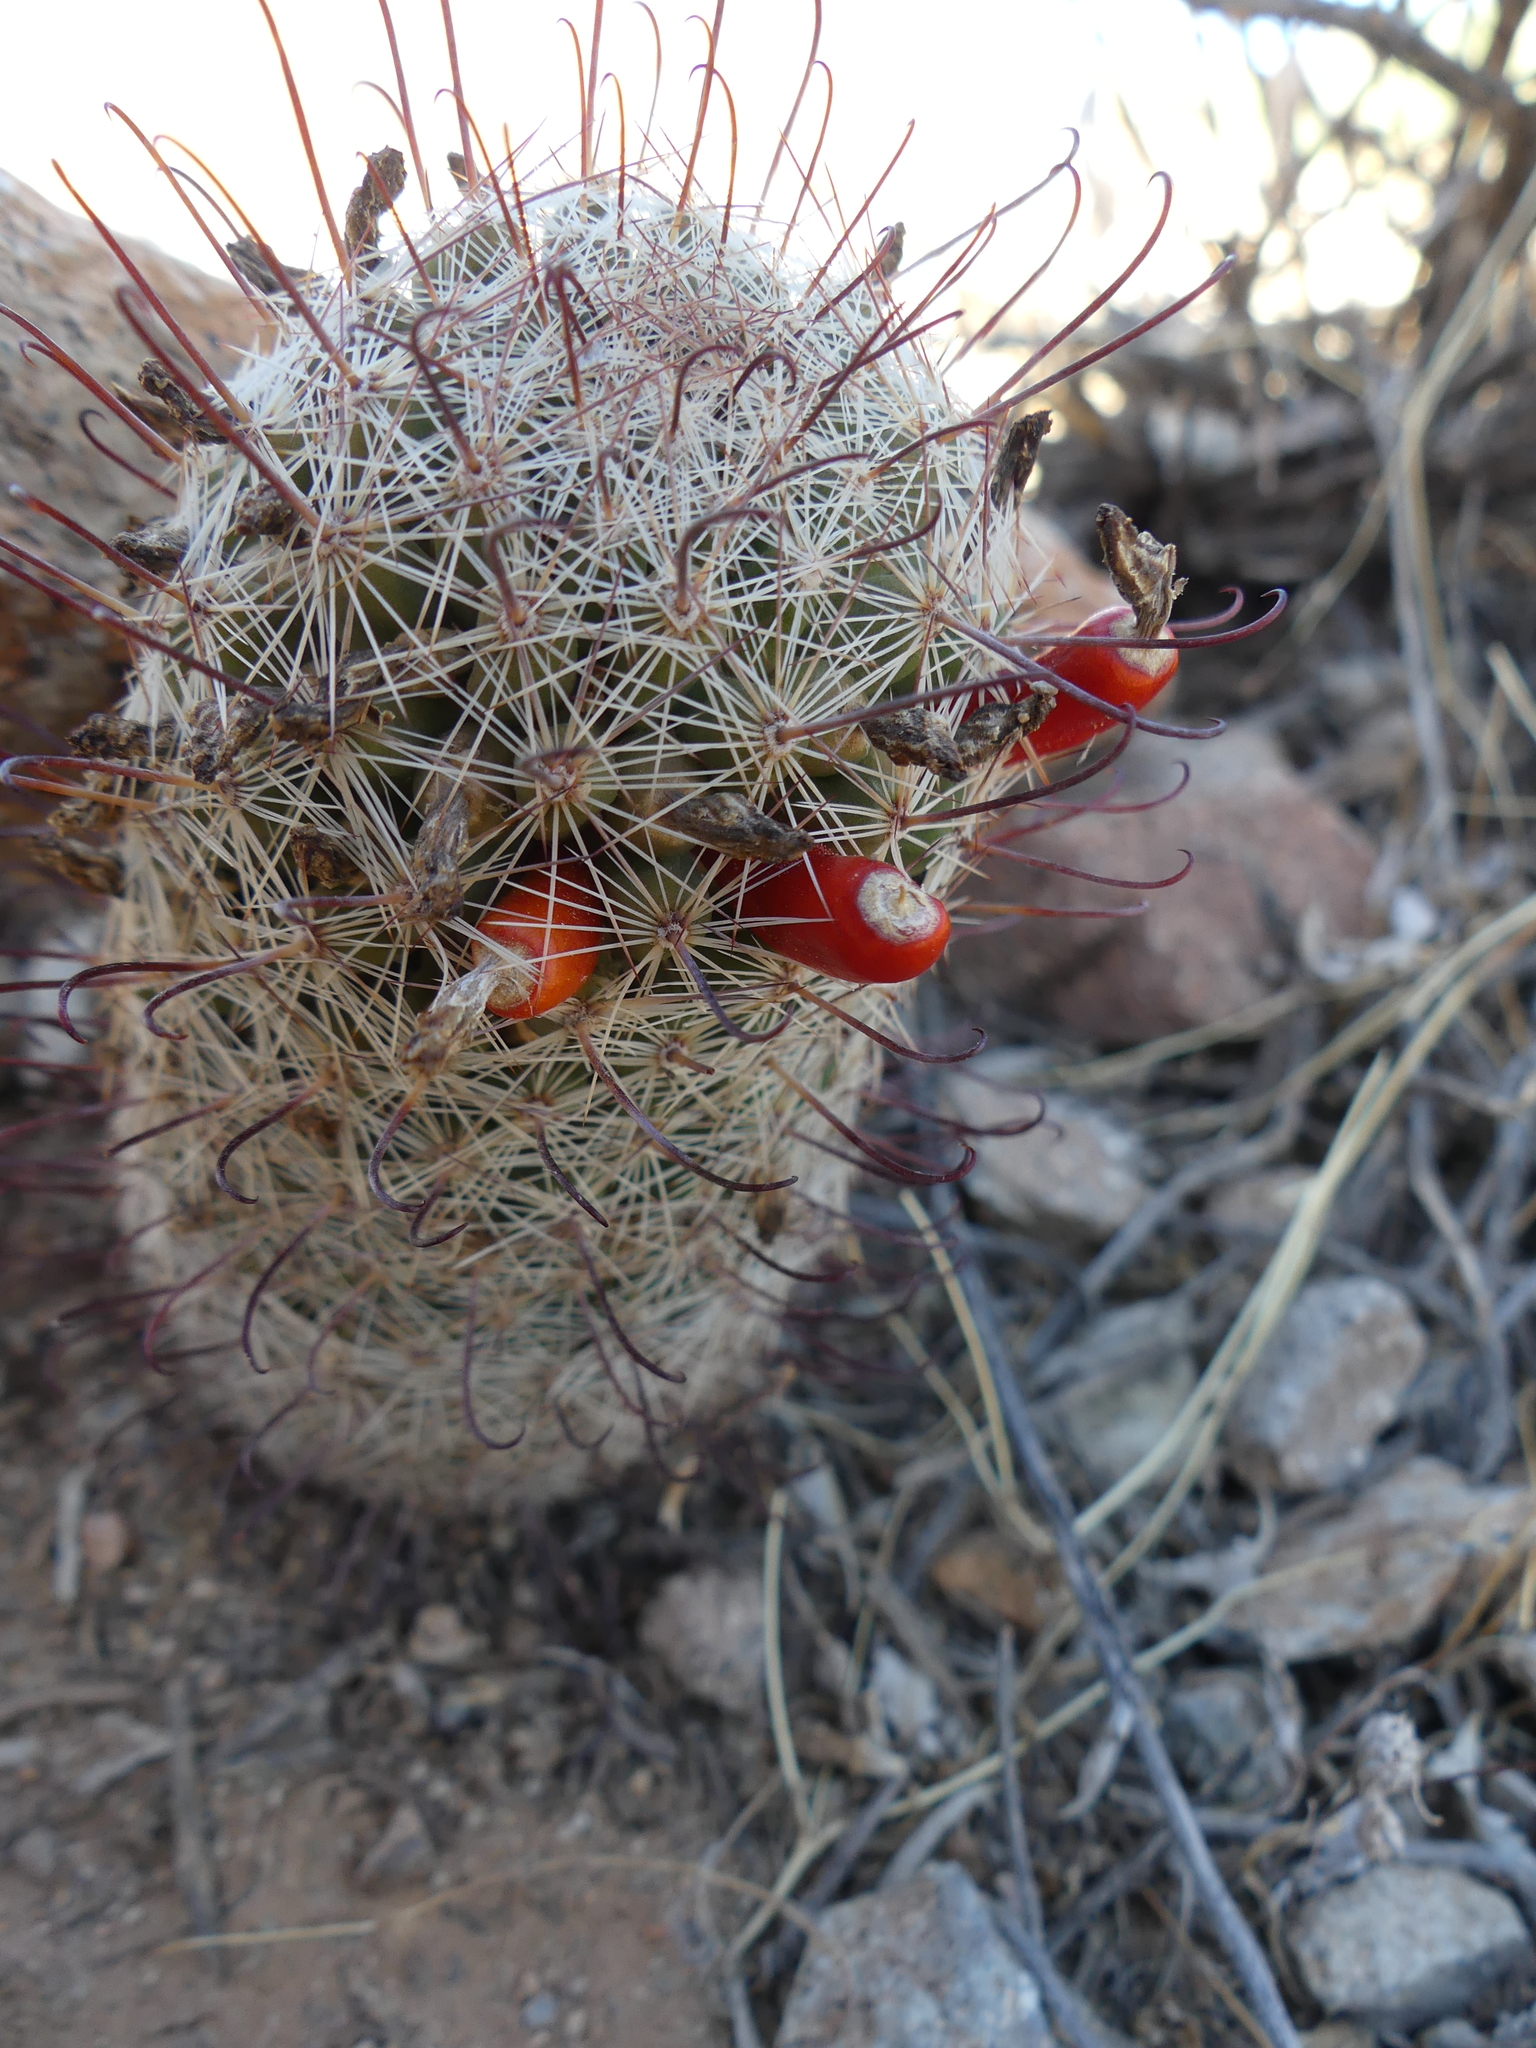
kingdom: Plantae
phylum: Tracheophyta
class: Magnoliopsida
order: Caryophyllales
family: Cactaceae
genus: Cochemiea
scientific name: Cochemiea grahamii
